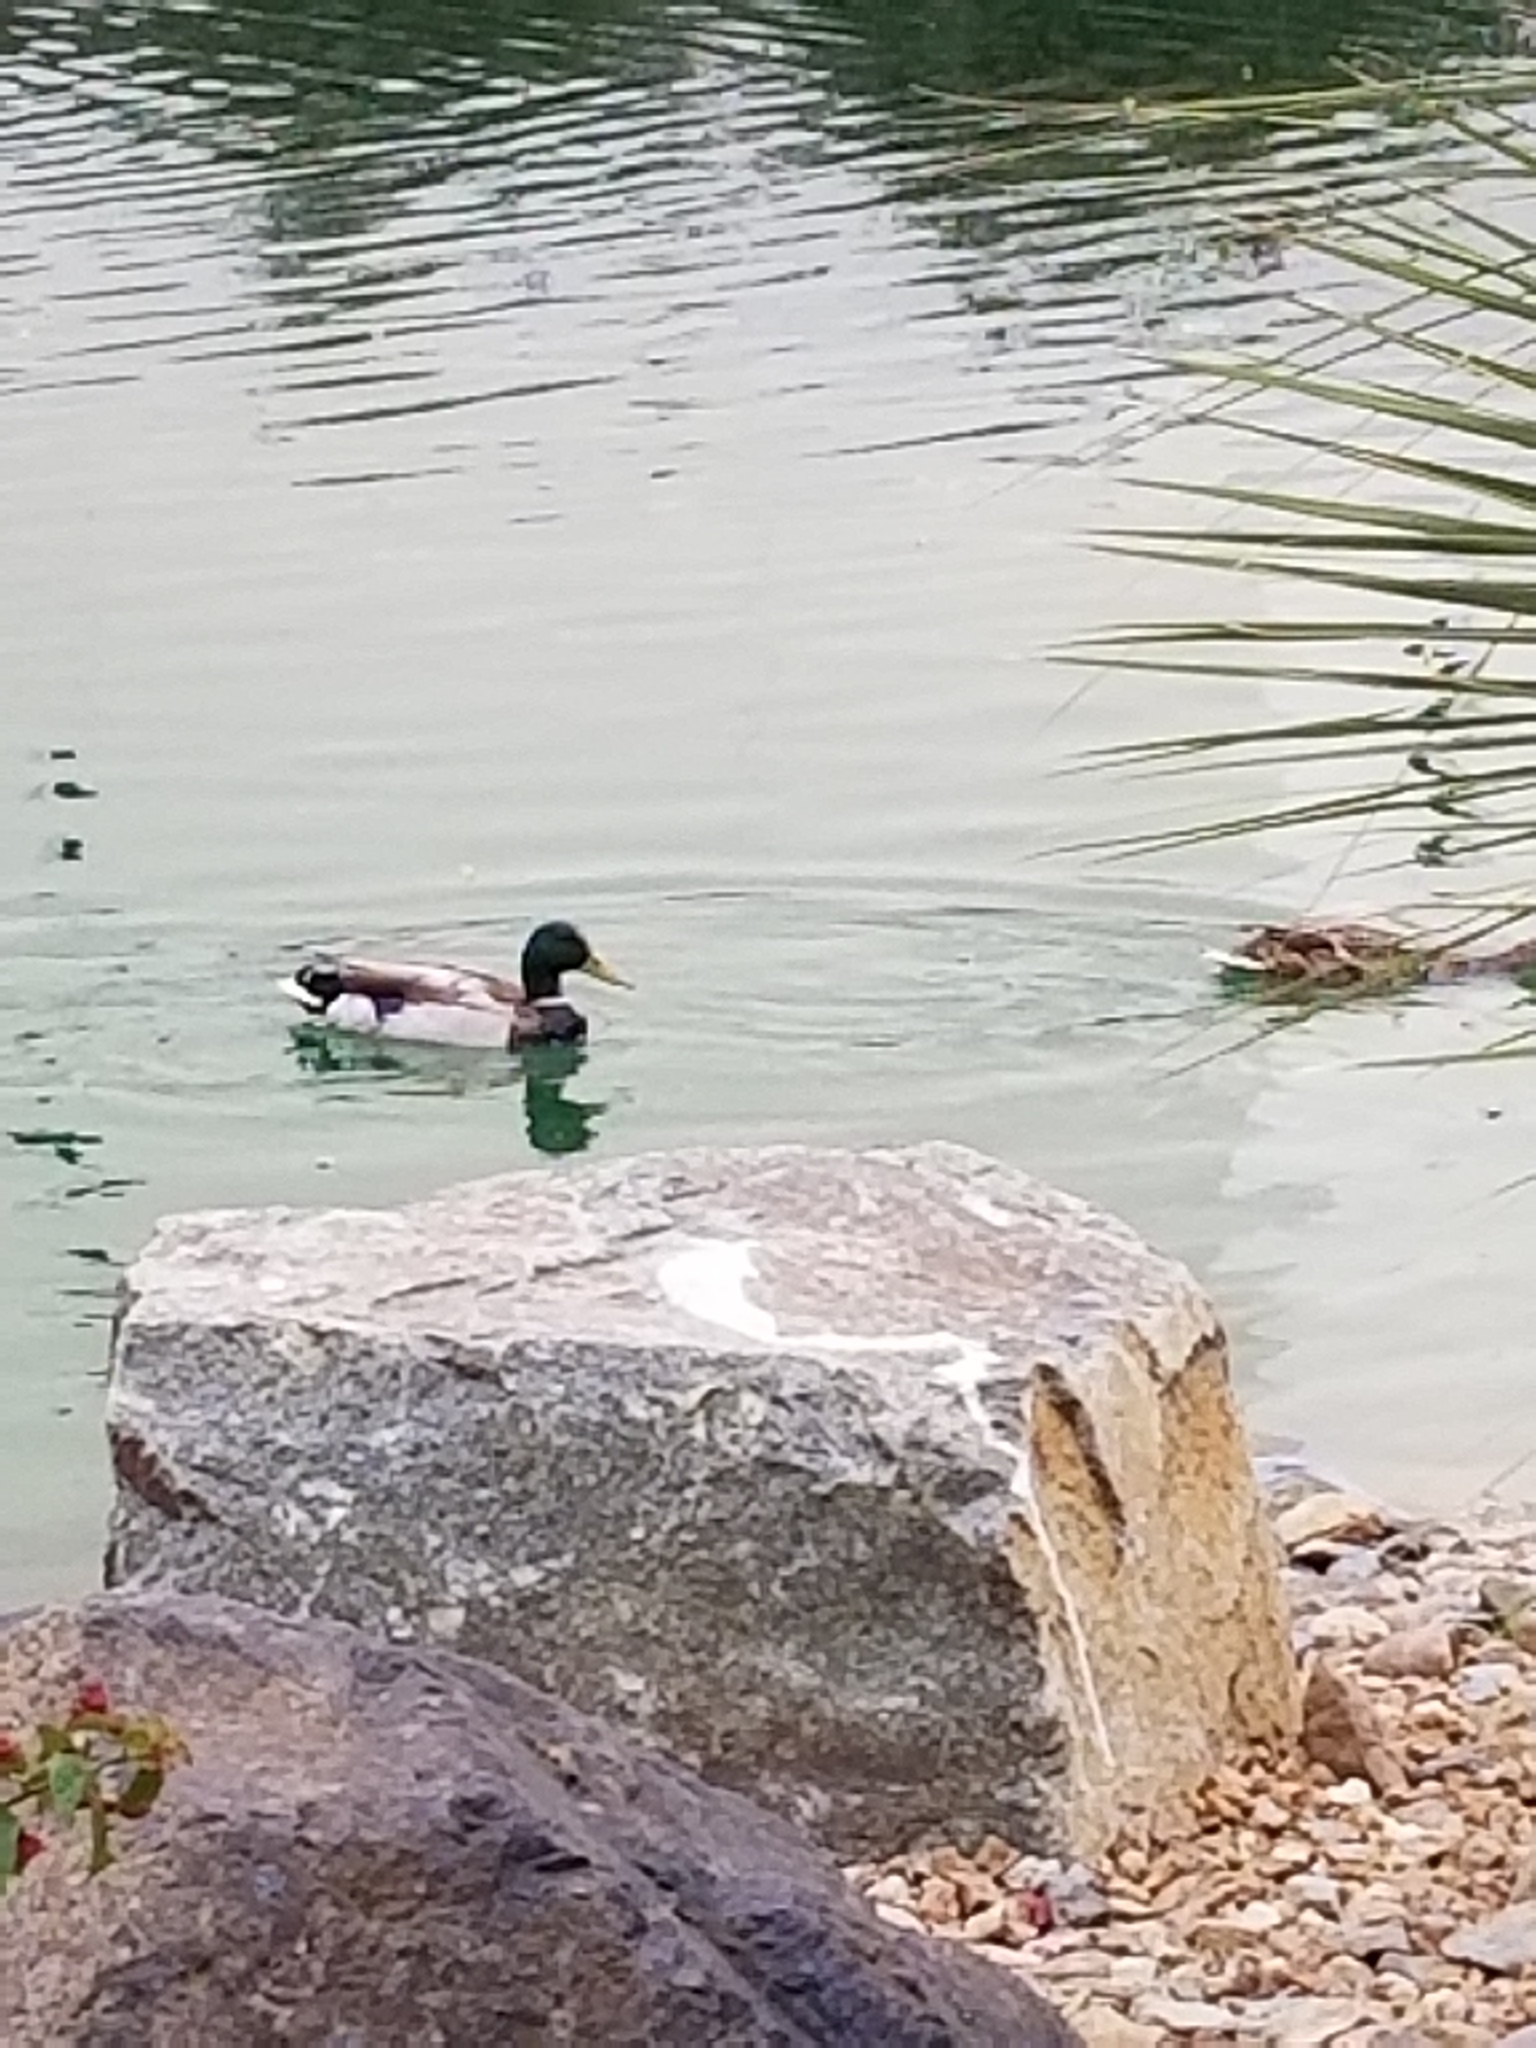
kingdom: Animalia
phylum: Chordata
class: Aves
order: Anseriformes
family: Anatidae
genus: Anas
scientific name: Anas platyrhynchos
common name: Mallard
